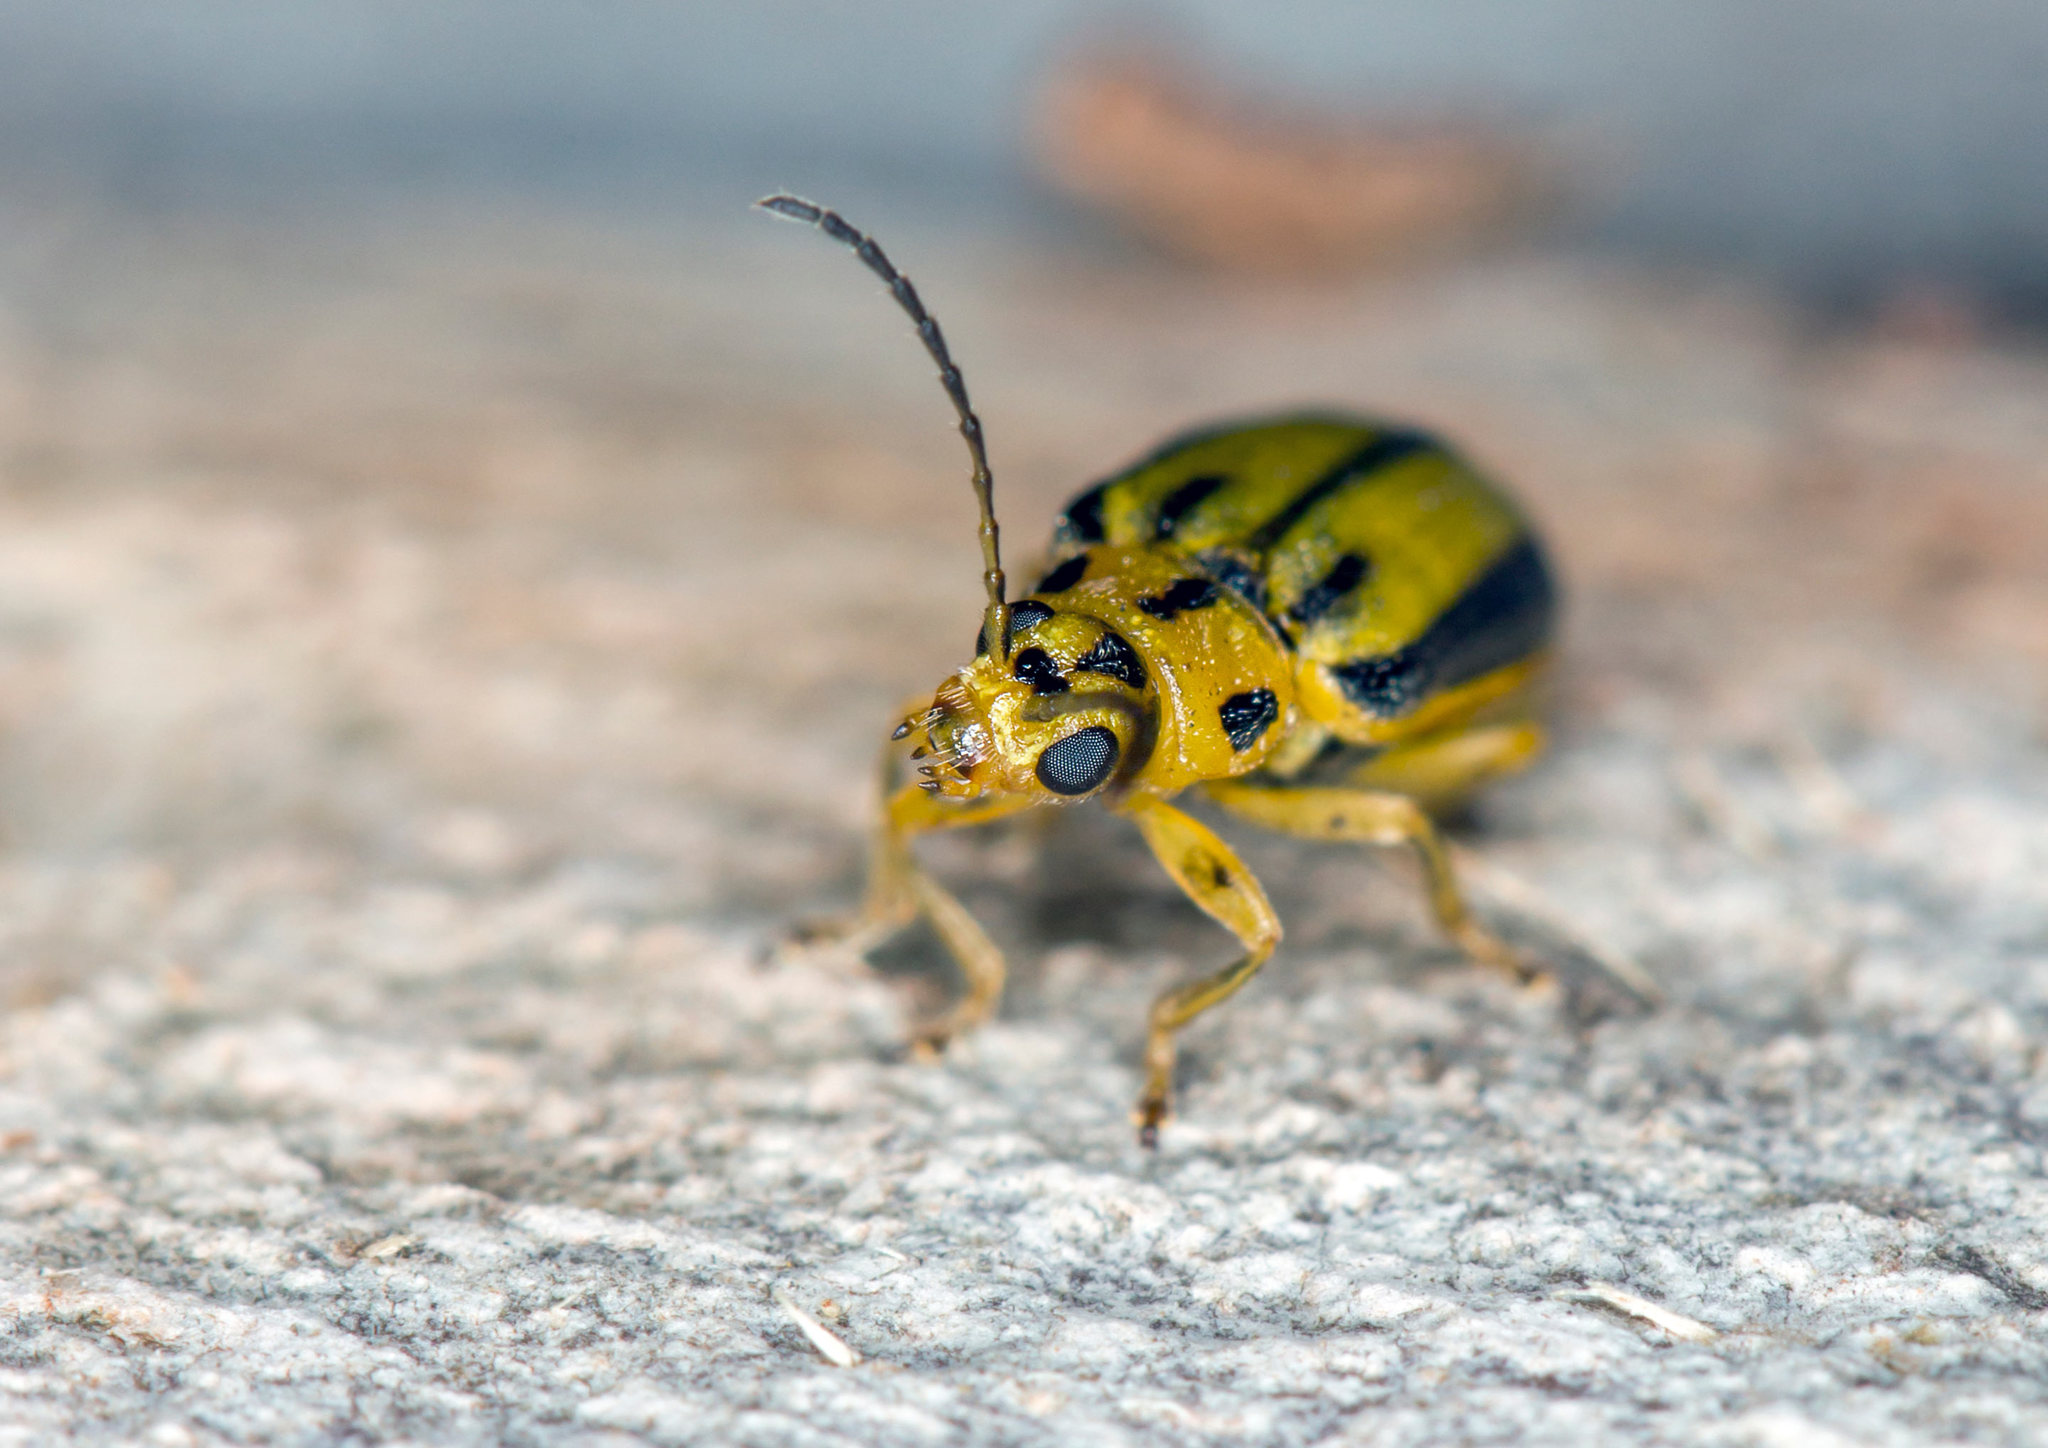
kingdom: Animalia
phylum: Arthropoda
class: Insecta
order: Coleoptera
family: Chrysomelidae
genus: Xanthogaleruca
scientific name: Xanthogaleruca luteola
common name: Elm leaf beetle
